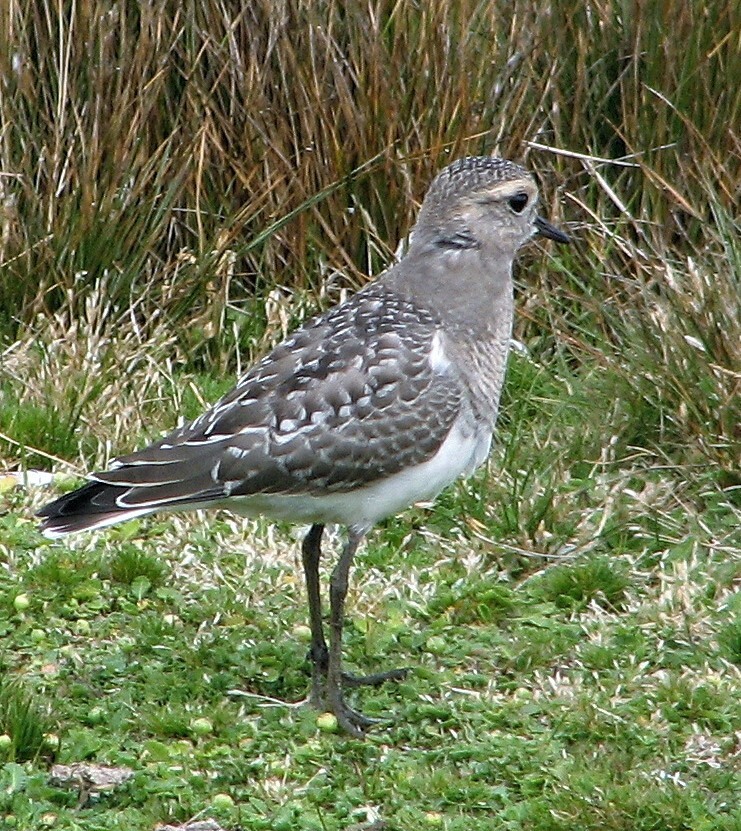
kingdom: Animalia
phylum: Chordata
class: Aves
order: Charadriiformes
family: Charadriidae
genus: Charadrius
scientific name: Charadrius modestus
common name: Rufous-chested plover
